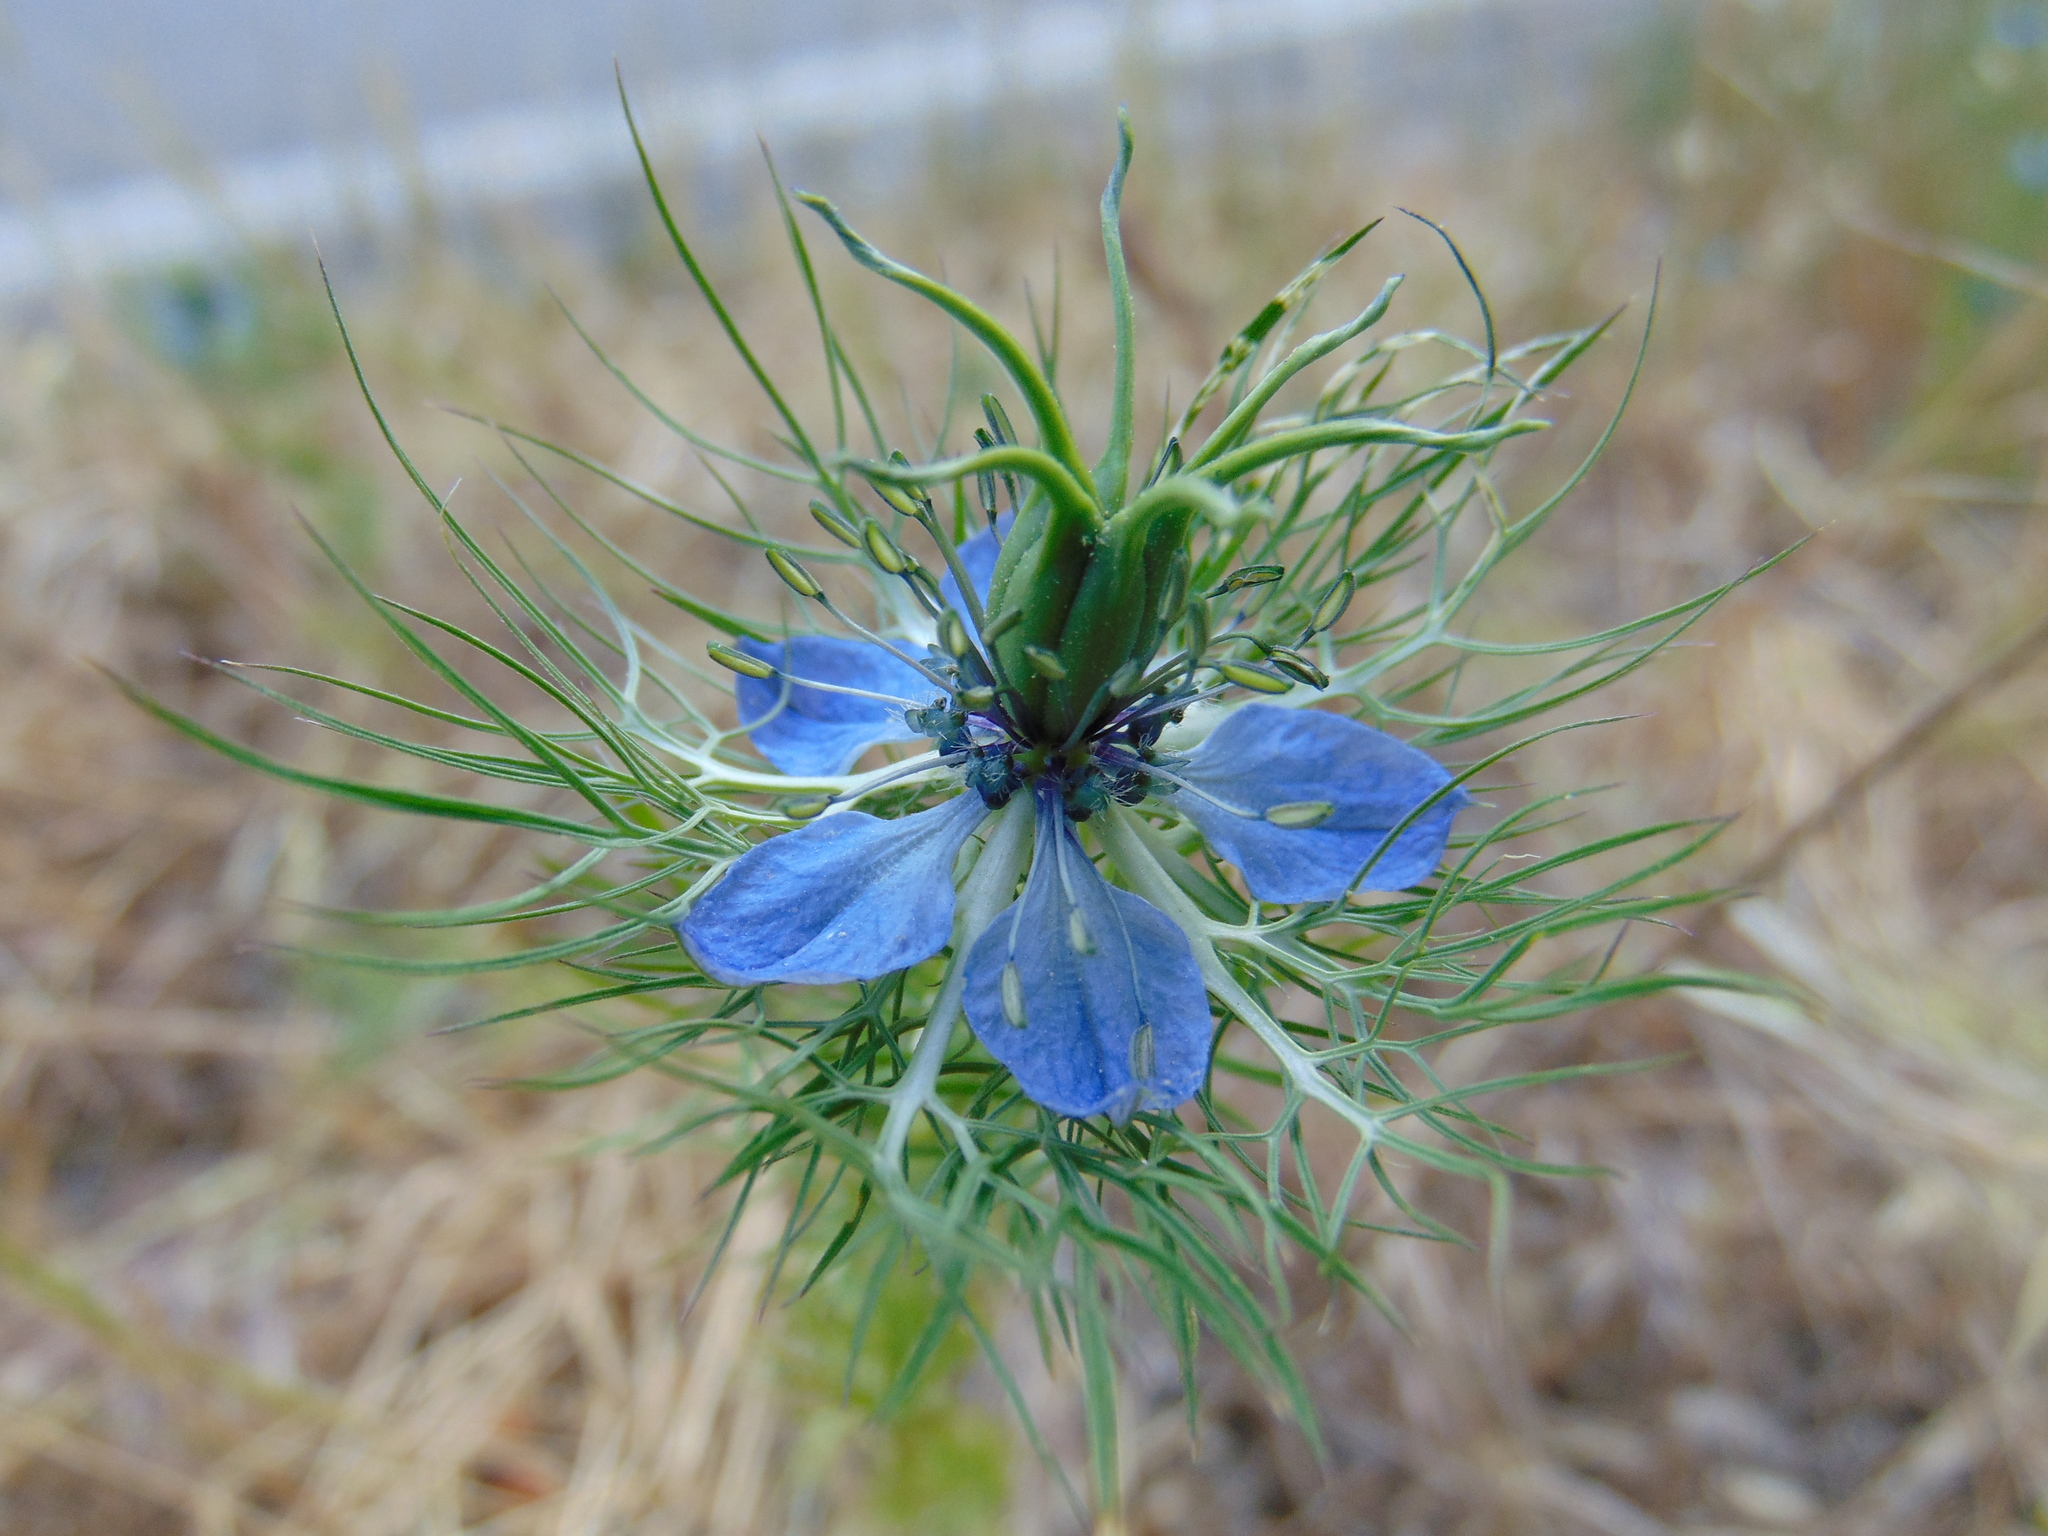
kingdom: Plantae
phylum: Tracheophyta
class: Magnoliopsida
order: Ranunculales
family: Ranunculaceae
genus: Nigella
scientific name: Nigella damascena
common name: Love-in-a-mist
